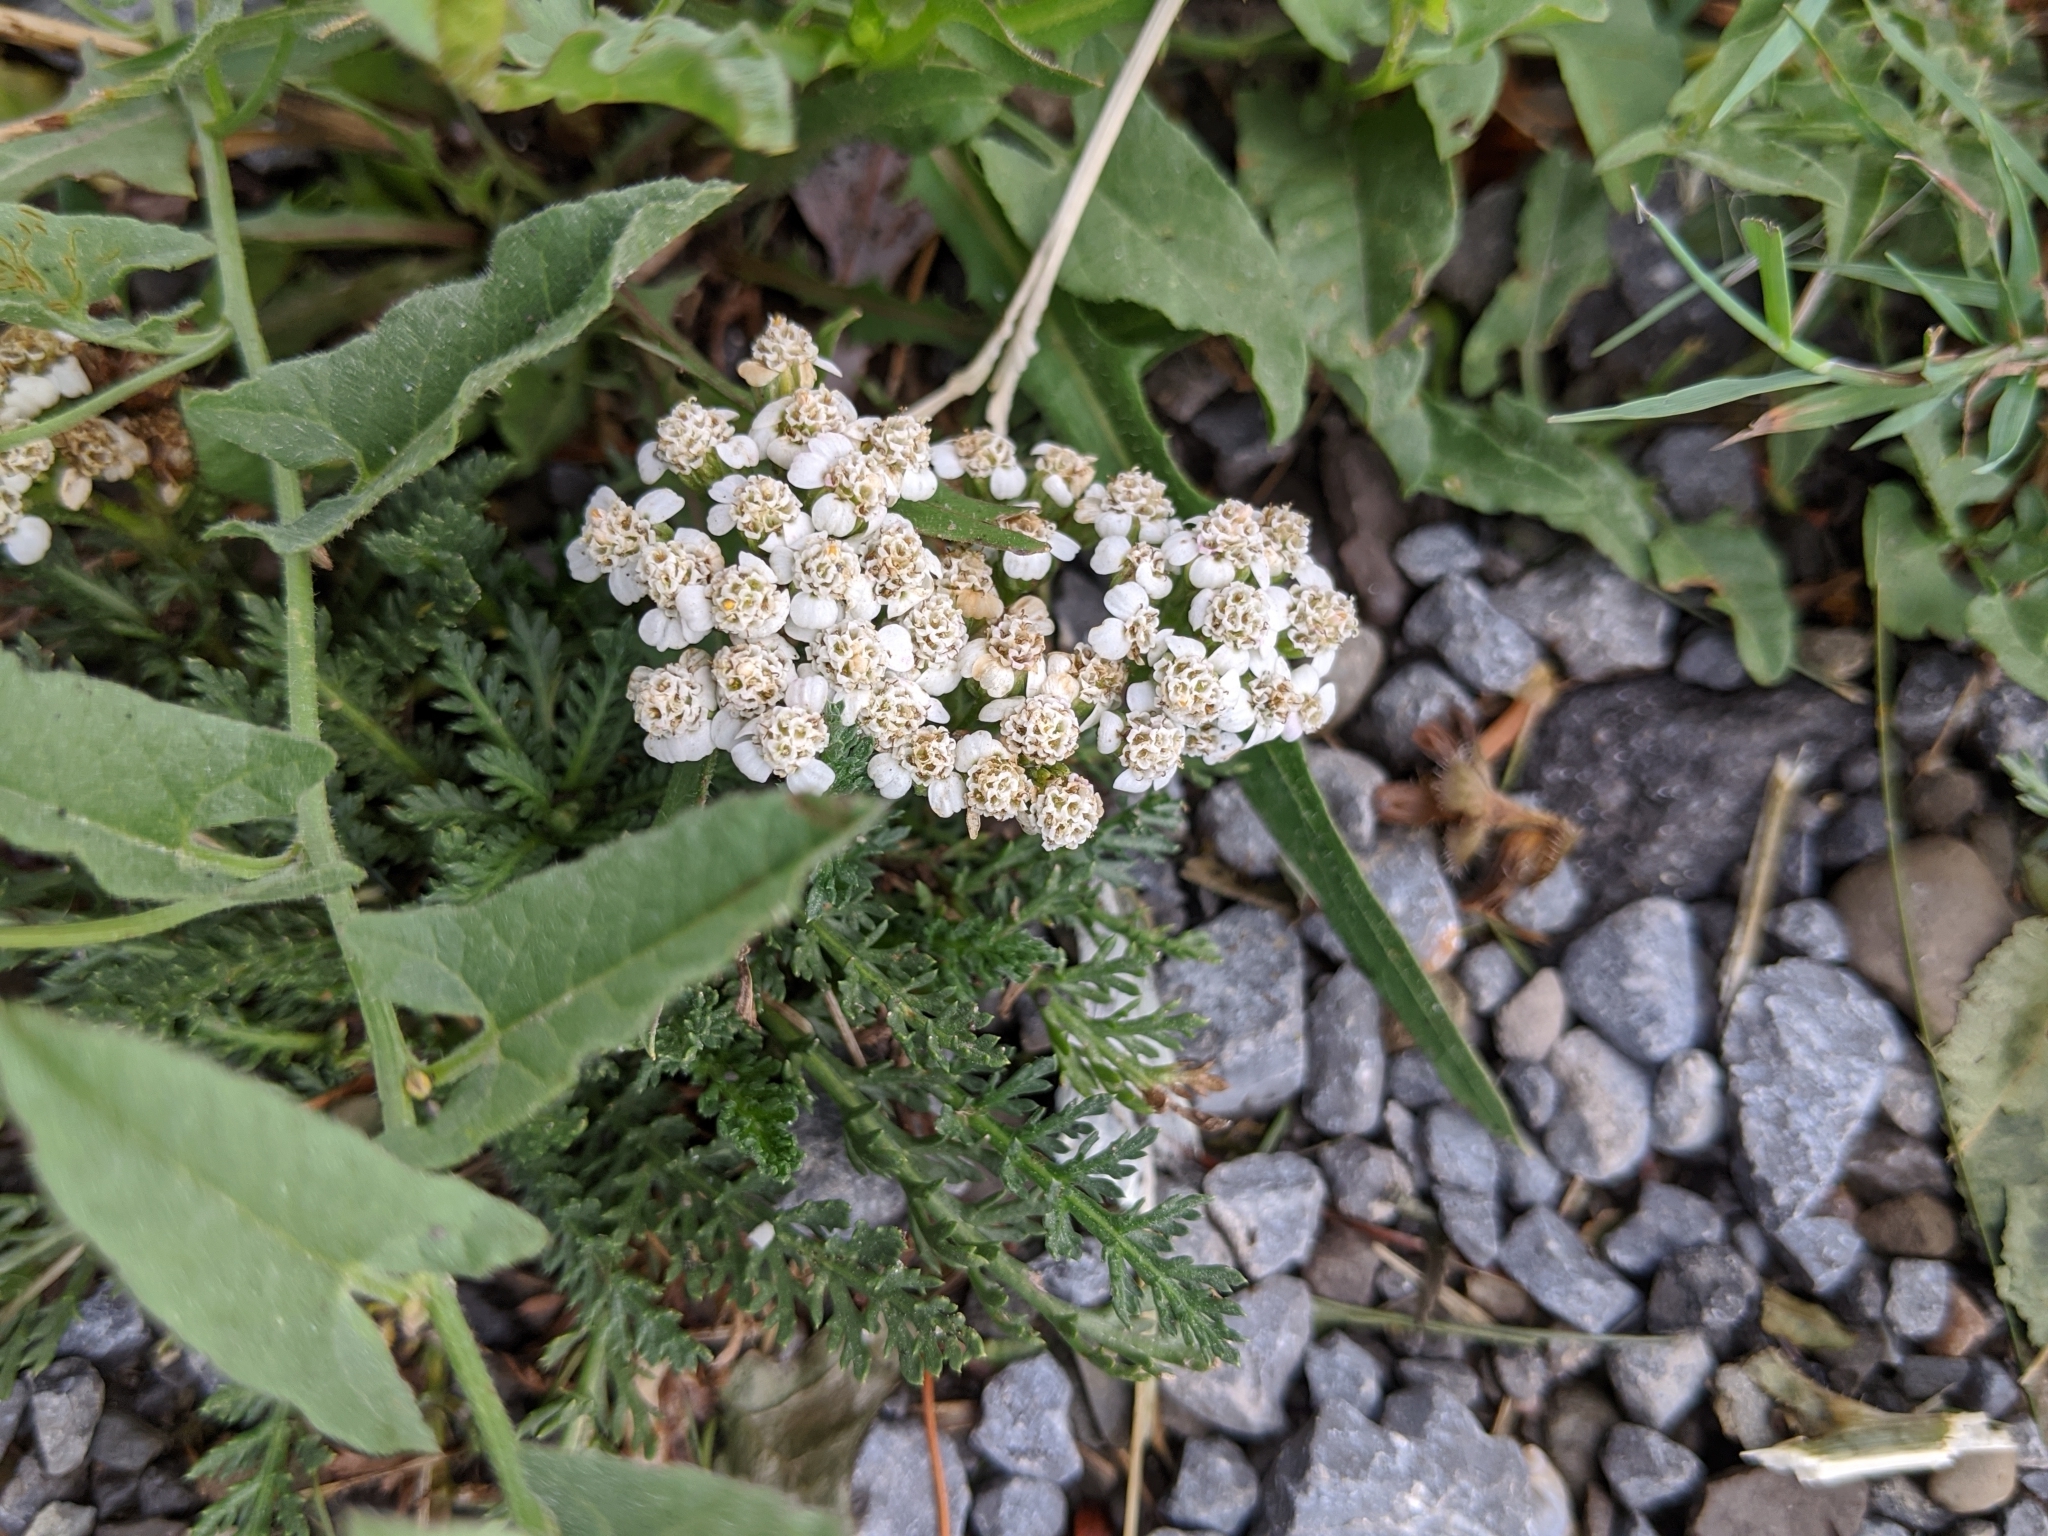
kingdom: Plantae
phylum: Tracheophyta
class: Magnoliopsida
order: Asterales
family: Asteraceae
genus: Achillea
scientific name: Achillea millefolium
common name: Yarrow
